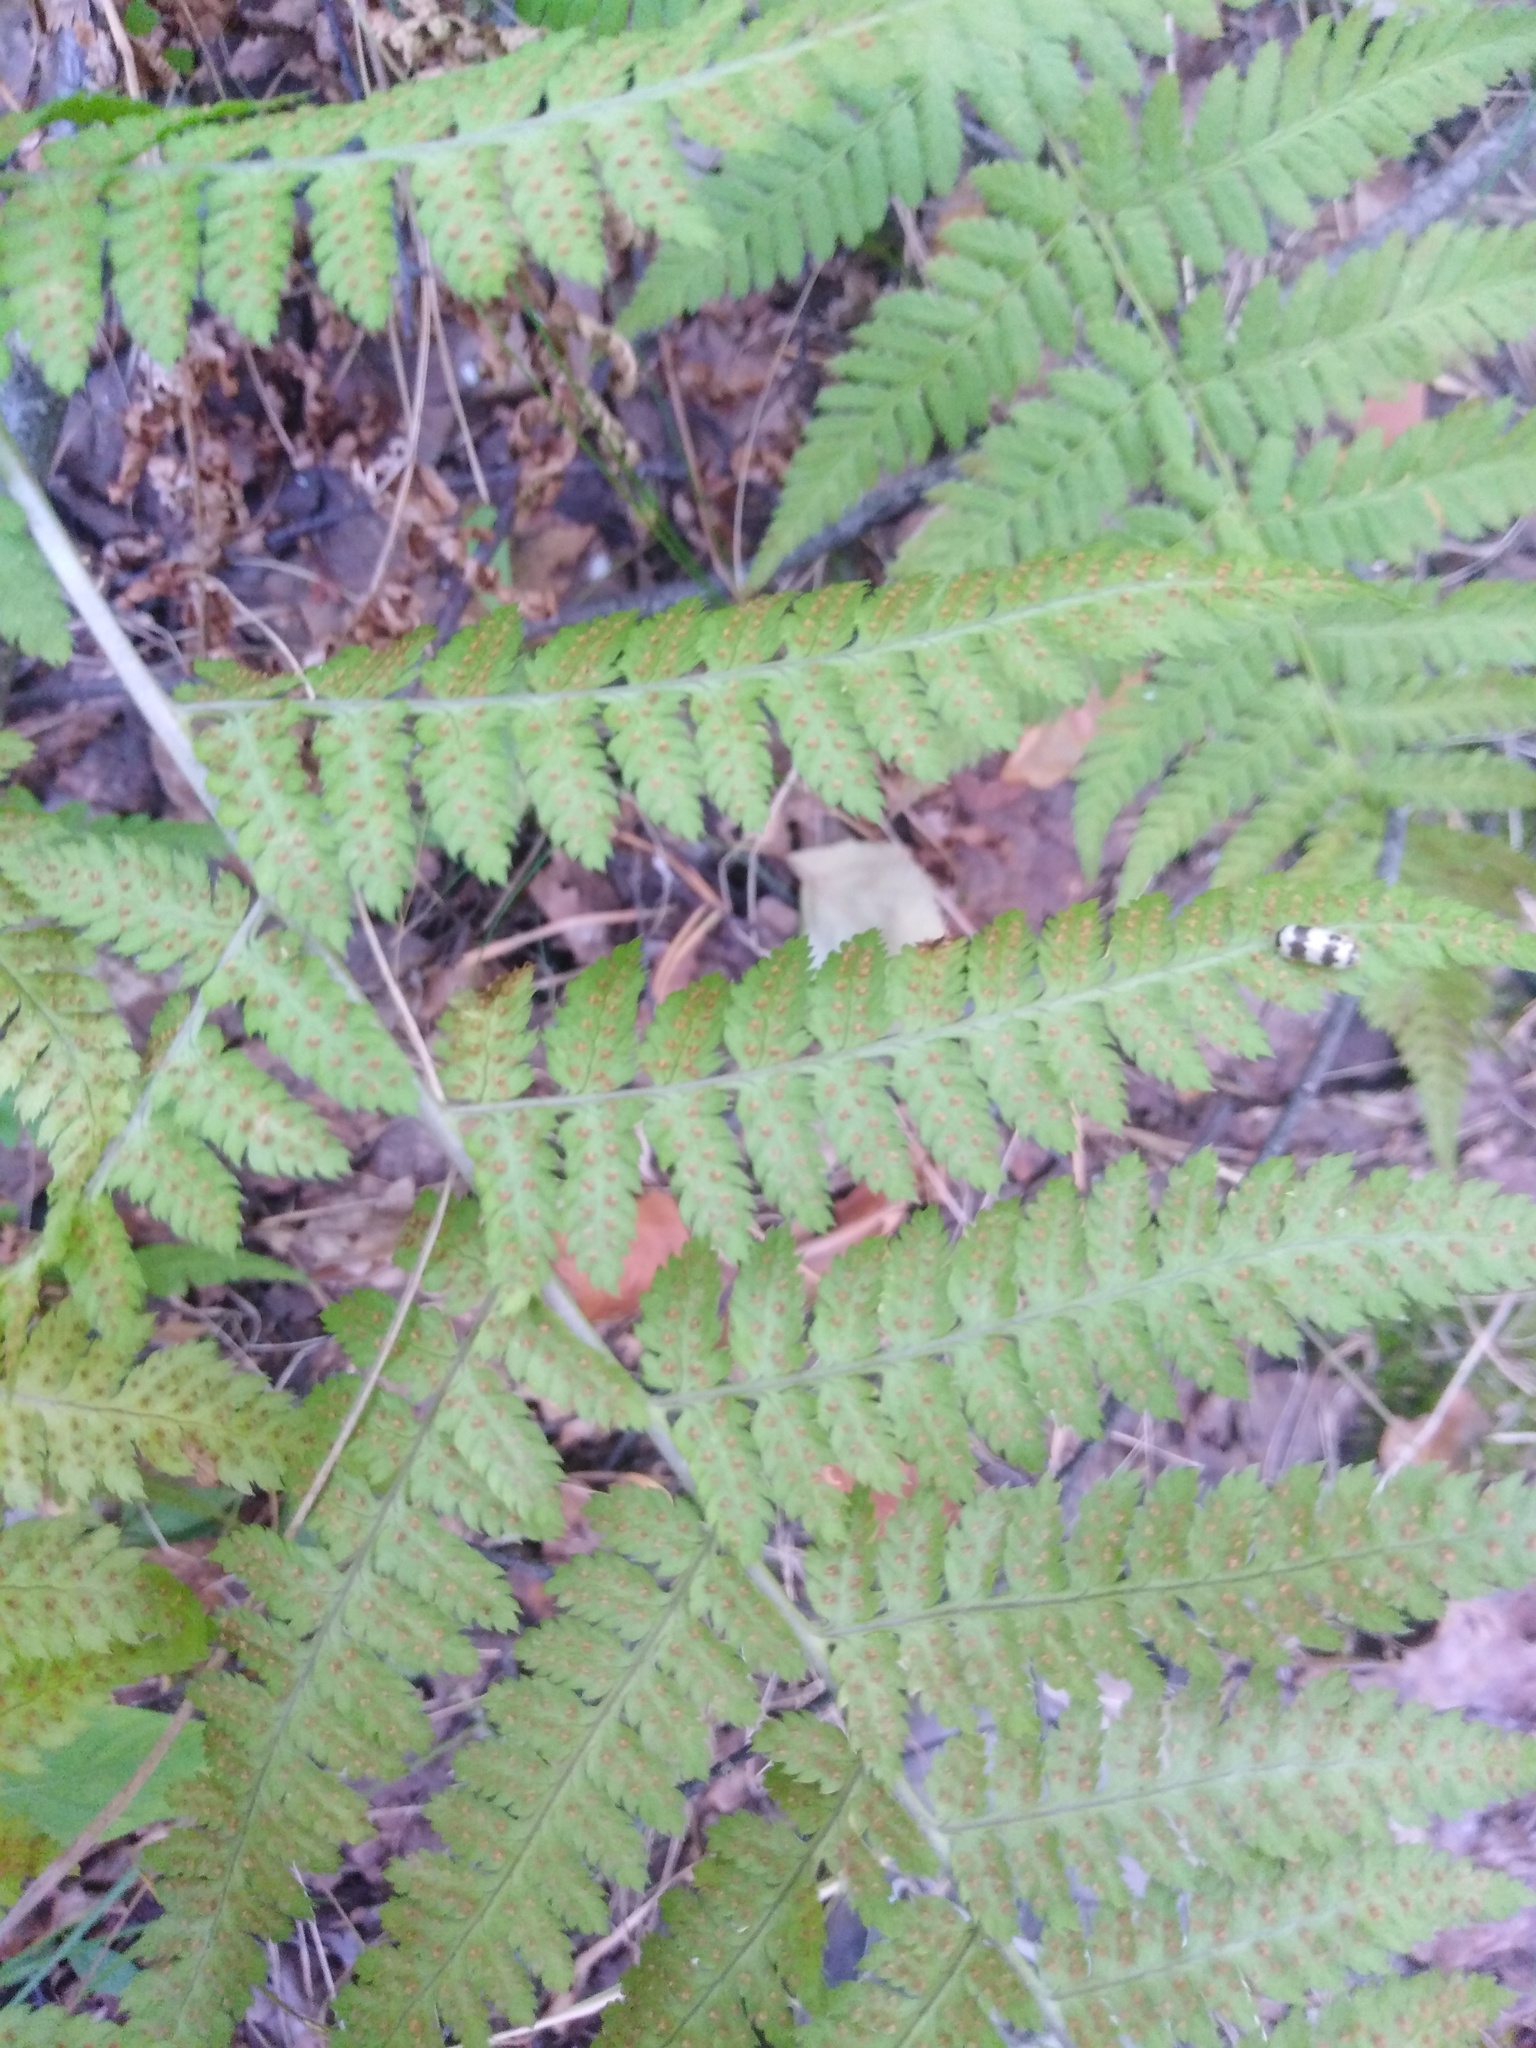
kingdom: Plantae
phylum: Tracheophyta
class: Polypodiopsida
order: Polypodiales
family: Dryopteridaceae
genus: Dryopteris
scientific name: Dryopteris carthusiana
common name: Narrow buckler-fern
